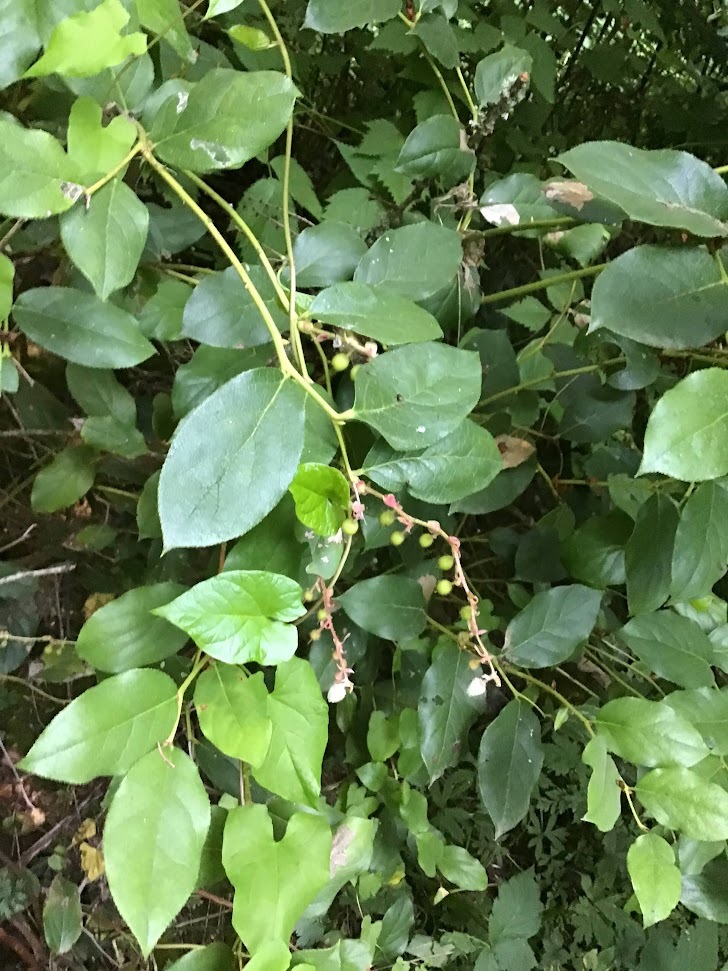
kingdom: Plantae
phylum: Tracheophyta
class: Magnoliopsida
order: Ericales
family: Ericaceae
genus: Gaultheria
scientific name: Gaultheria shallon
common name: Shallon
